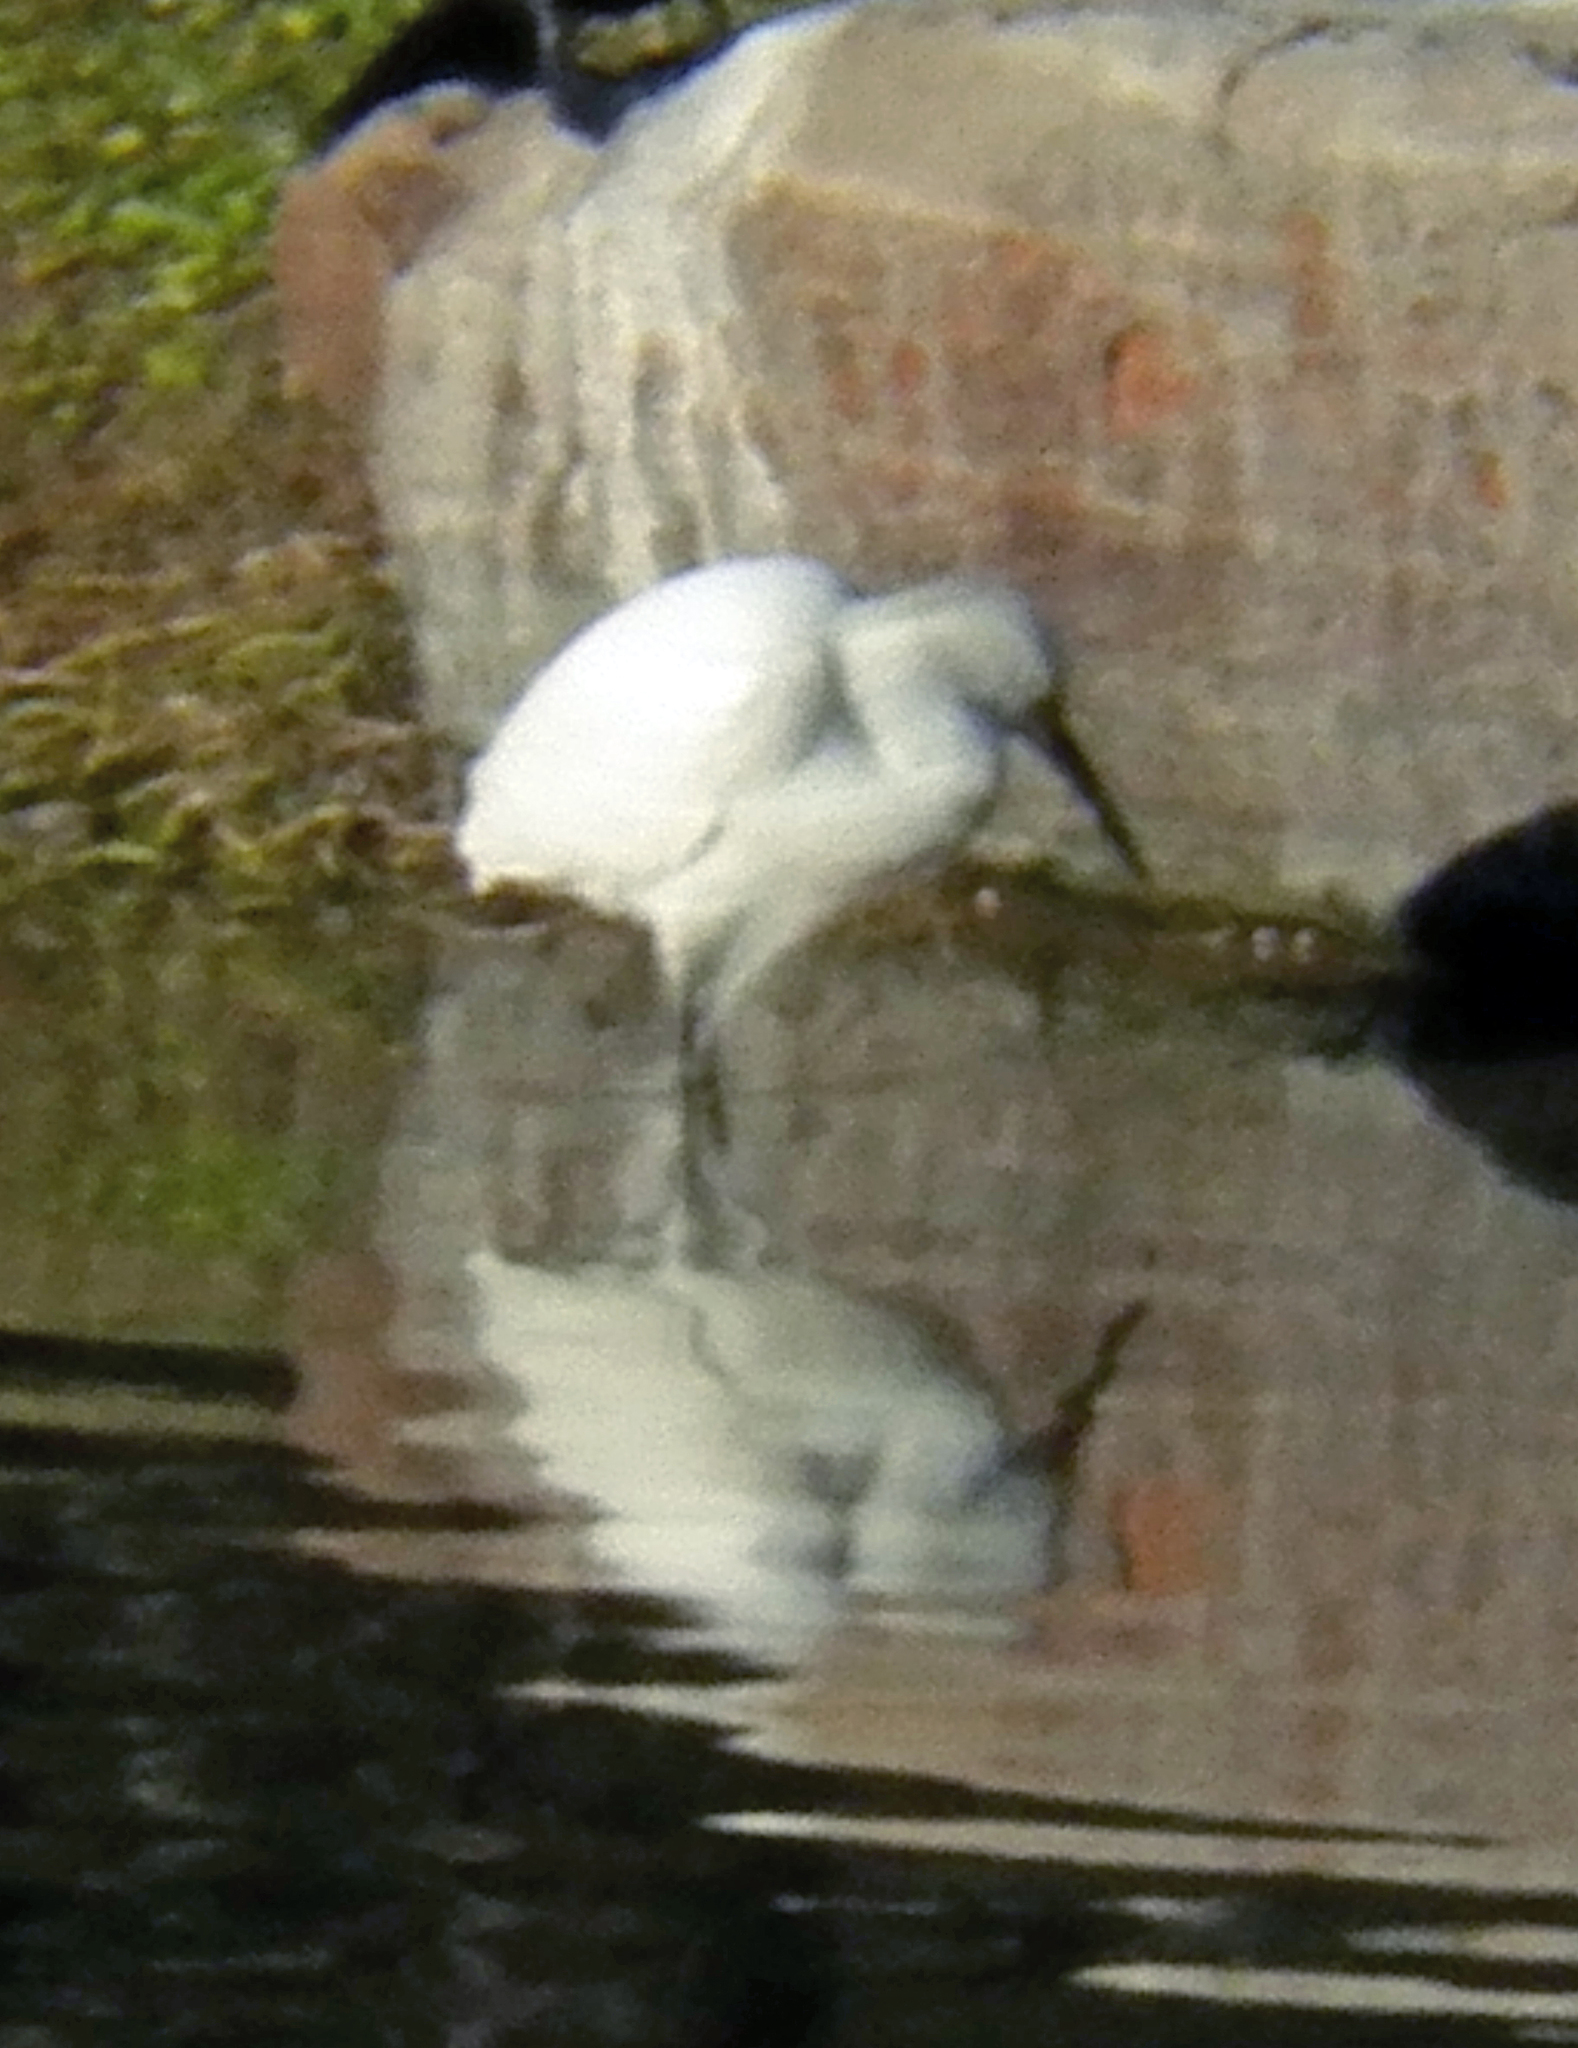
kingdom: Animalia
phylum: Chordata
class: Aves
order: Pelecaniformes
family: Ardeidae
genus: Egretta
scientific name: Egretta thula
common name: Snowy egret
